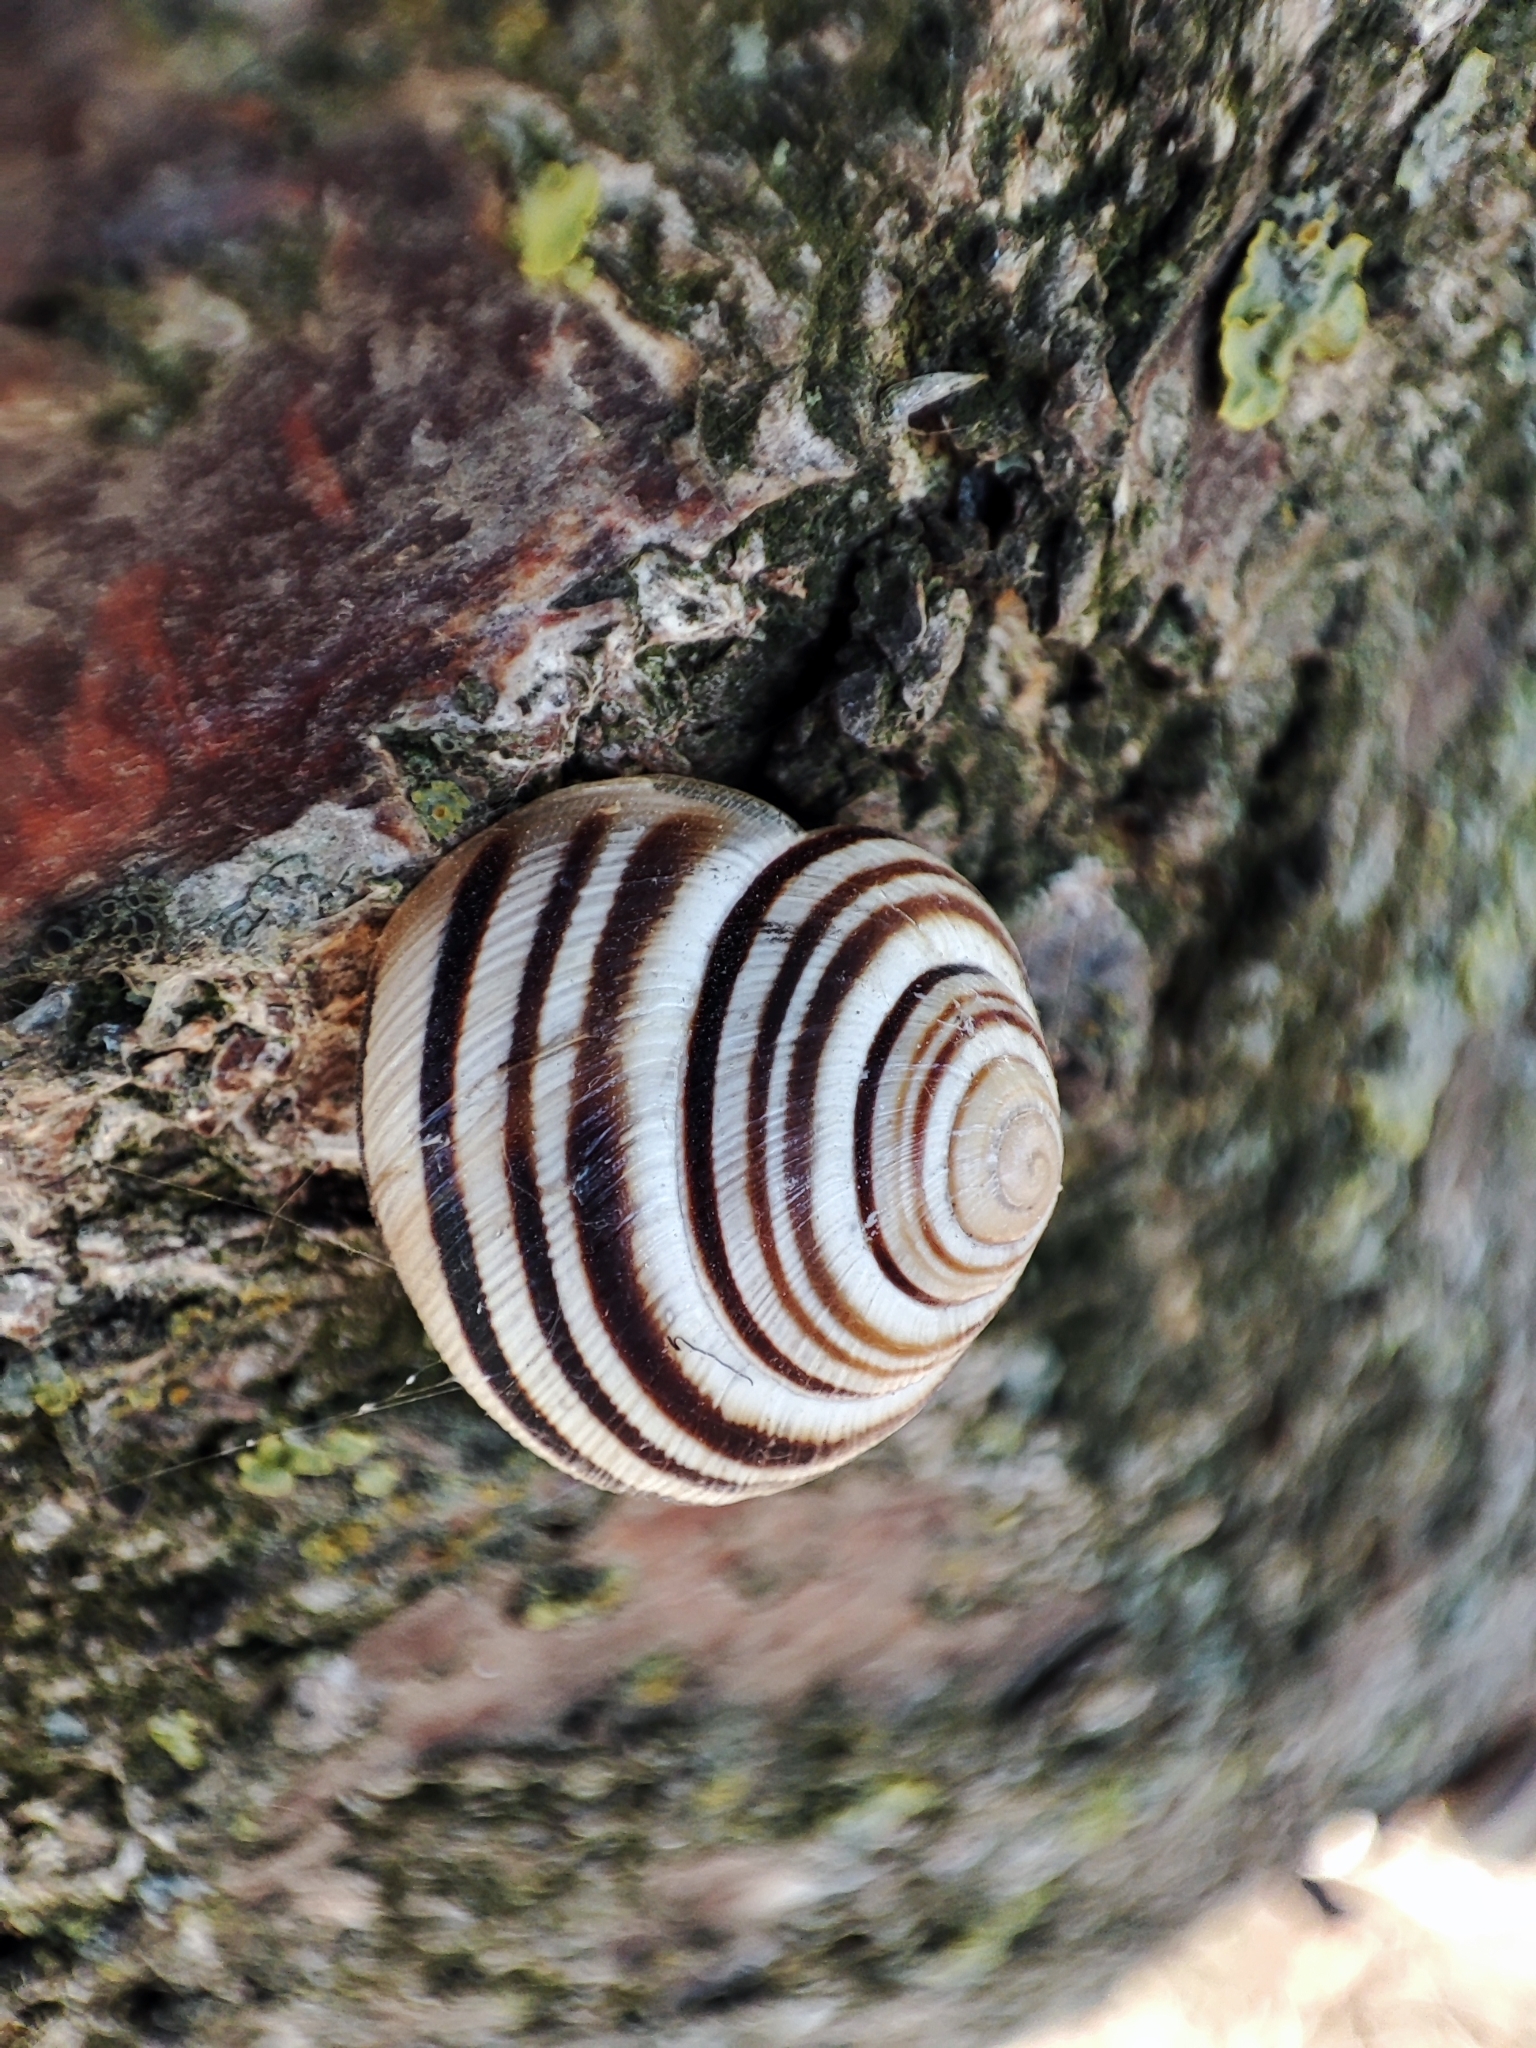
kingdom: Animalia
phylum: Mollusca
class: Gastropoda
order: Stylommatophora
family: Helicidae
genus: Caucasotachea
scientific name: Caucasotachea vindobonensis
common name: European helicid land snail
